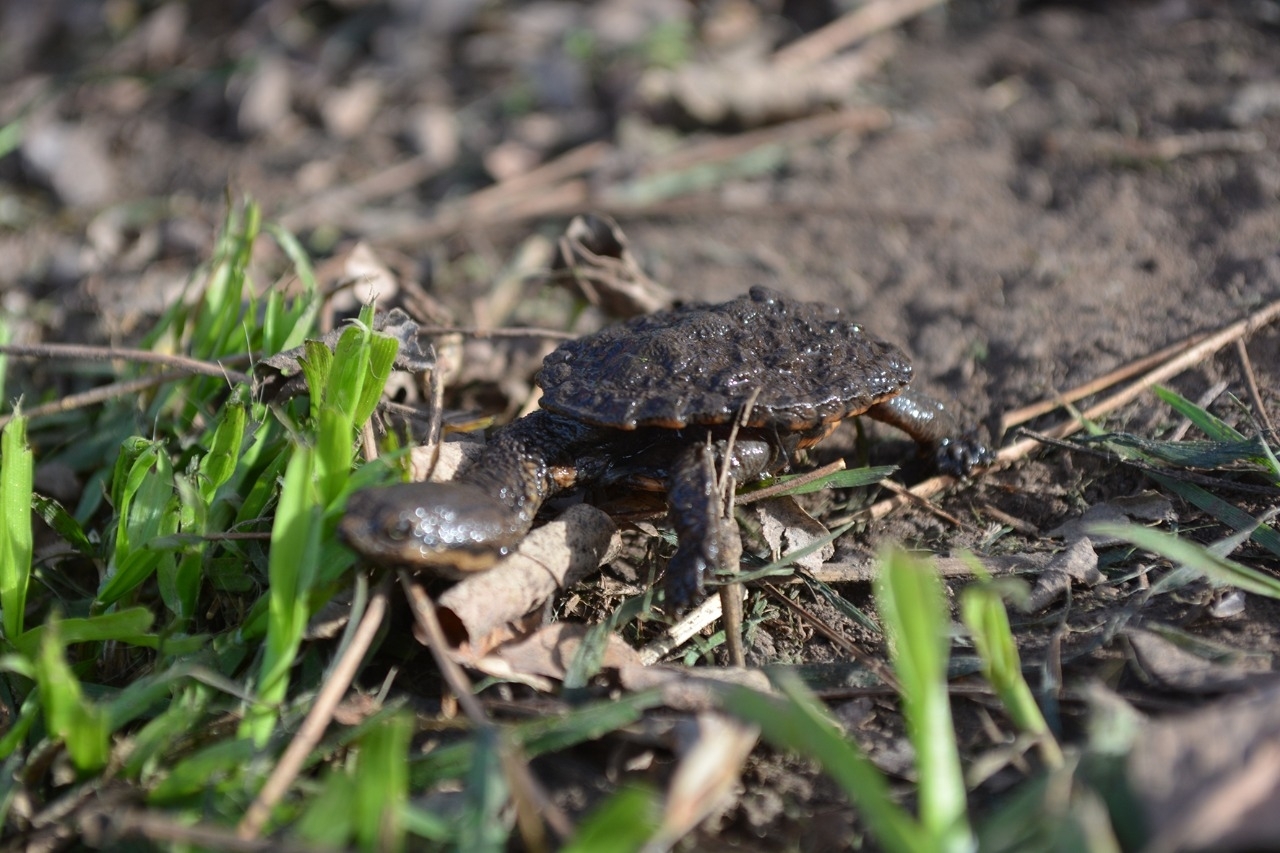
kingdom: Animalia
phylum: Chordata
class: Testudines
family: Chelidae
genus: Hydromedusa
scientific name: Hydromedusa tectifera
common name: Argentine snake-necked turtle
